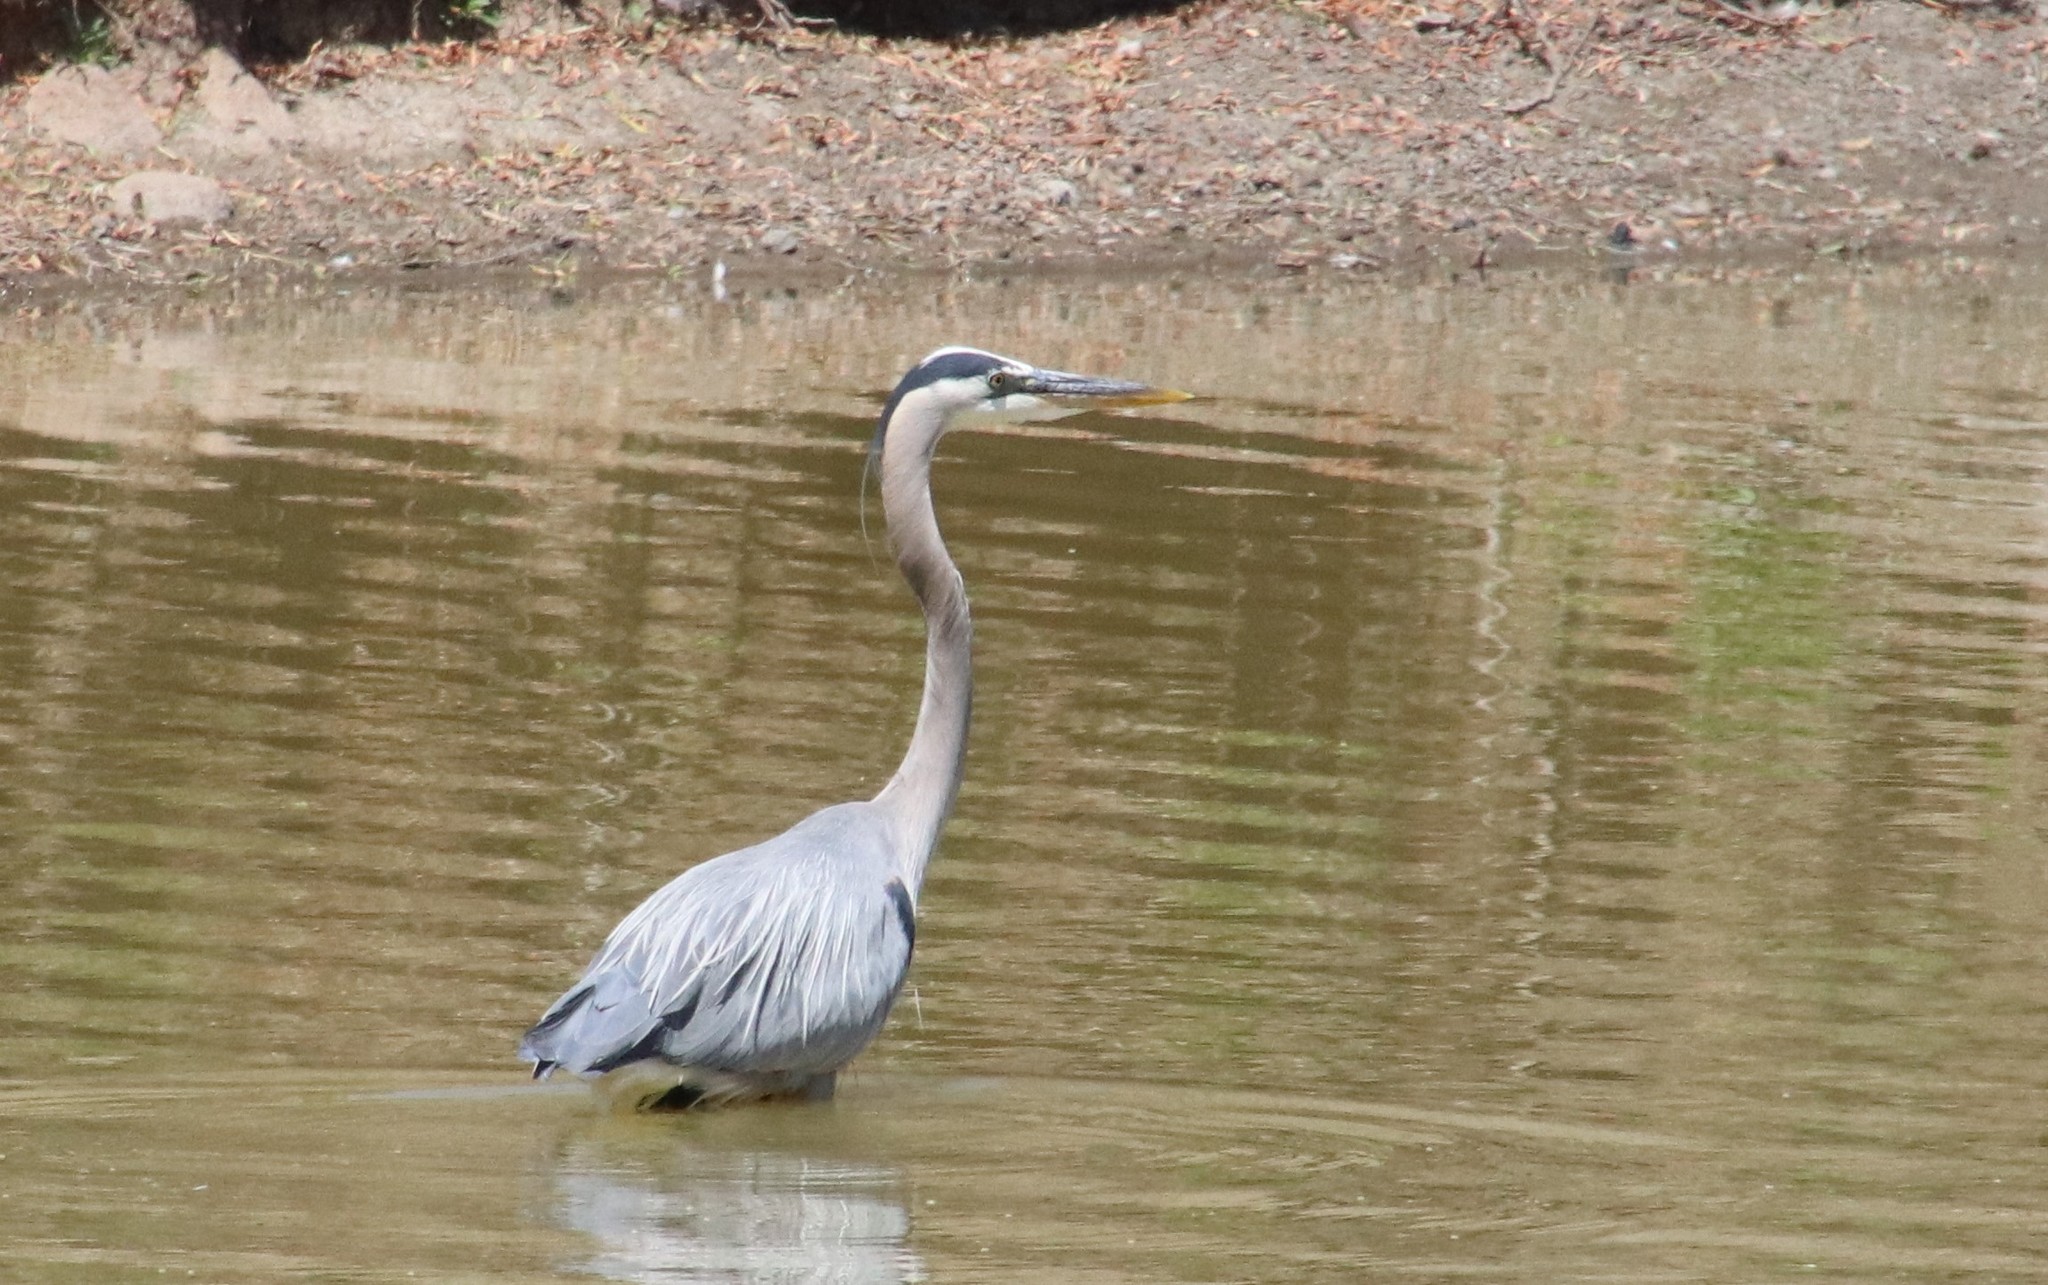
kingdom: Animalia
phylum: Chordata
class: Aves
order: Pelecaniformes
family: Ardeidae
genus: Ardea
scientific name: Ardea herodias
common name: Great blue heron
